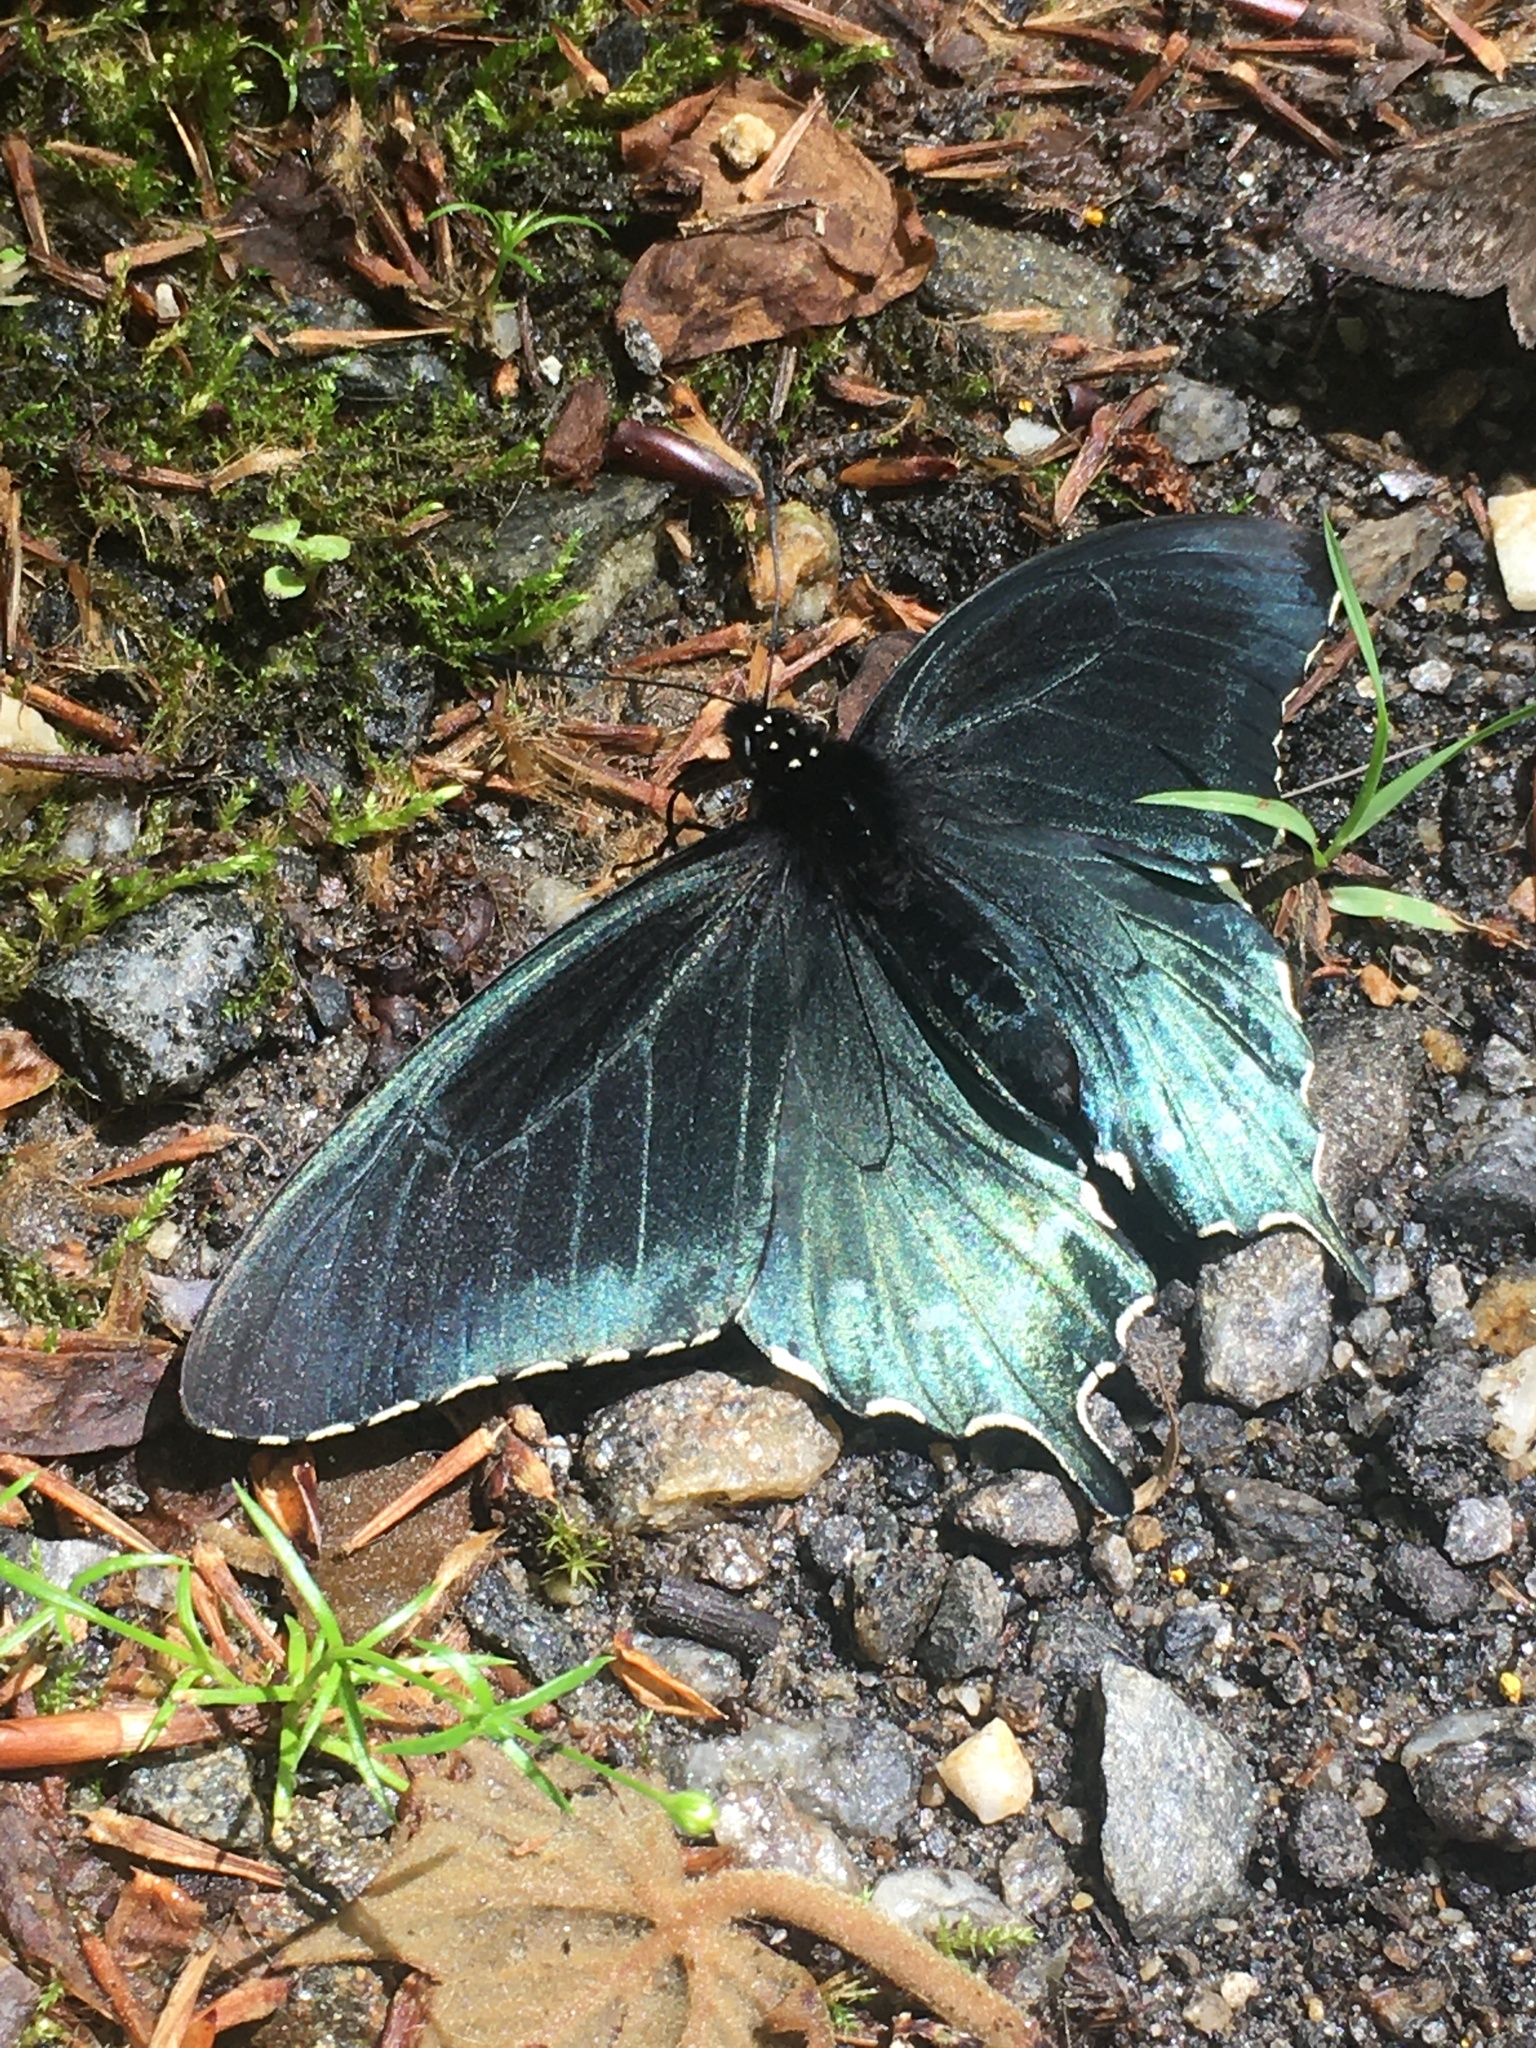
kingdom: Animalia
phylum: Arthropoda
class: Insecta
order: Lepidoptera
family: Papilionidae
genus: Battus
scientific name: Battus philenor
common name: Pipevine swallowtail
